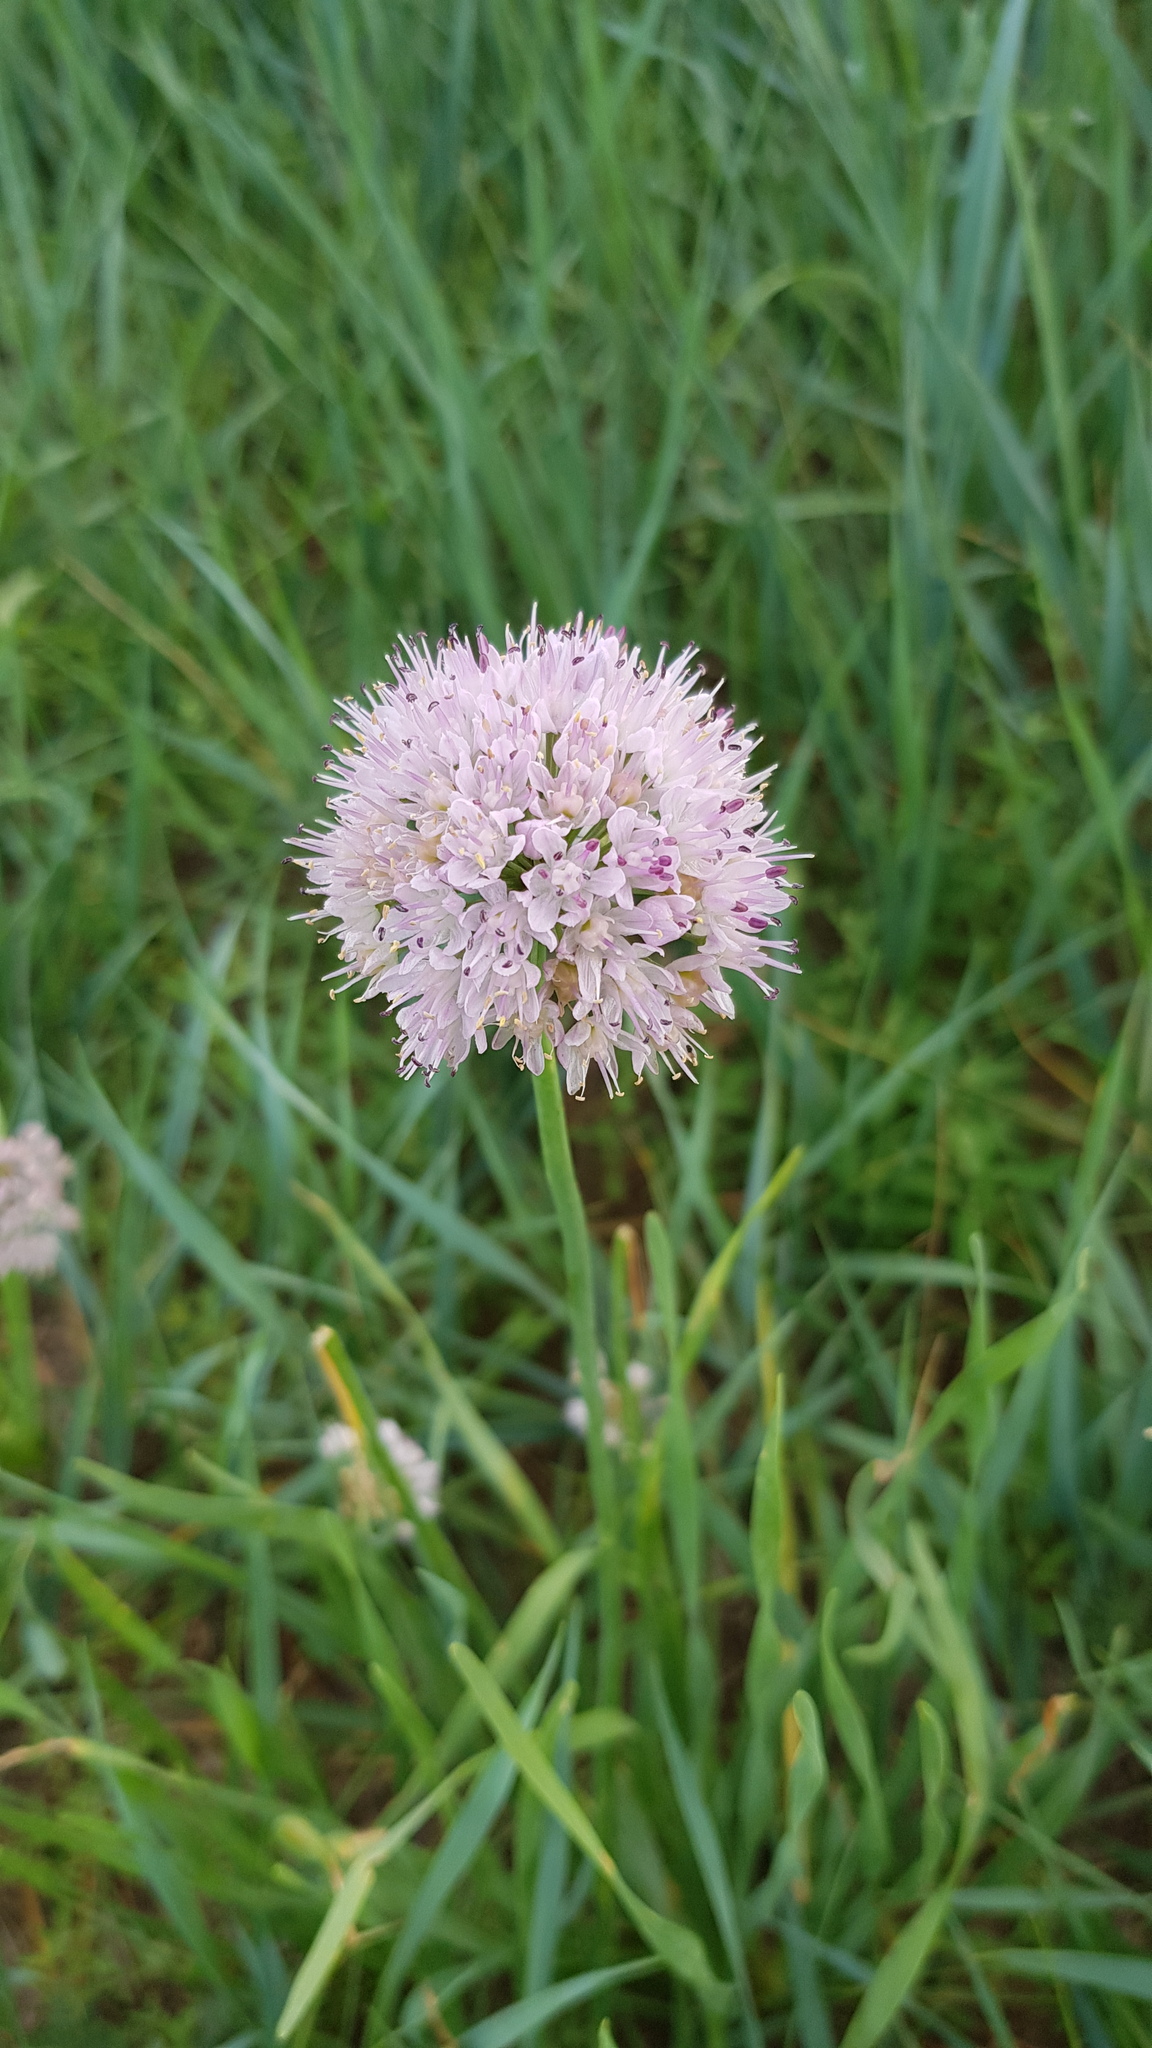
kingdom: Plantae
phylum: Tracheophyta
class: Liliopsida
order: Asparagales
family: Amaryllidaceae
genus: Allium
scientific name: Allium senescens
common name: German garlic
